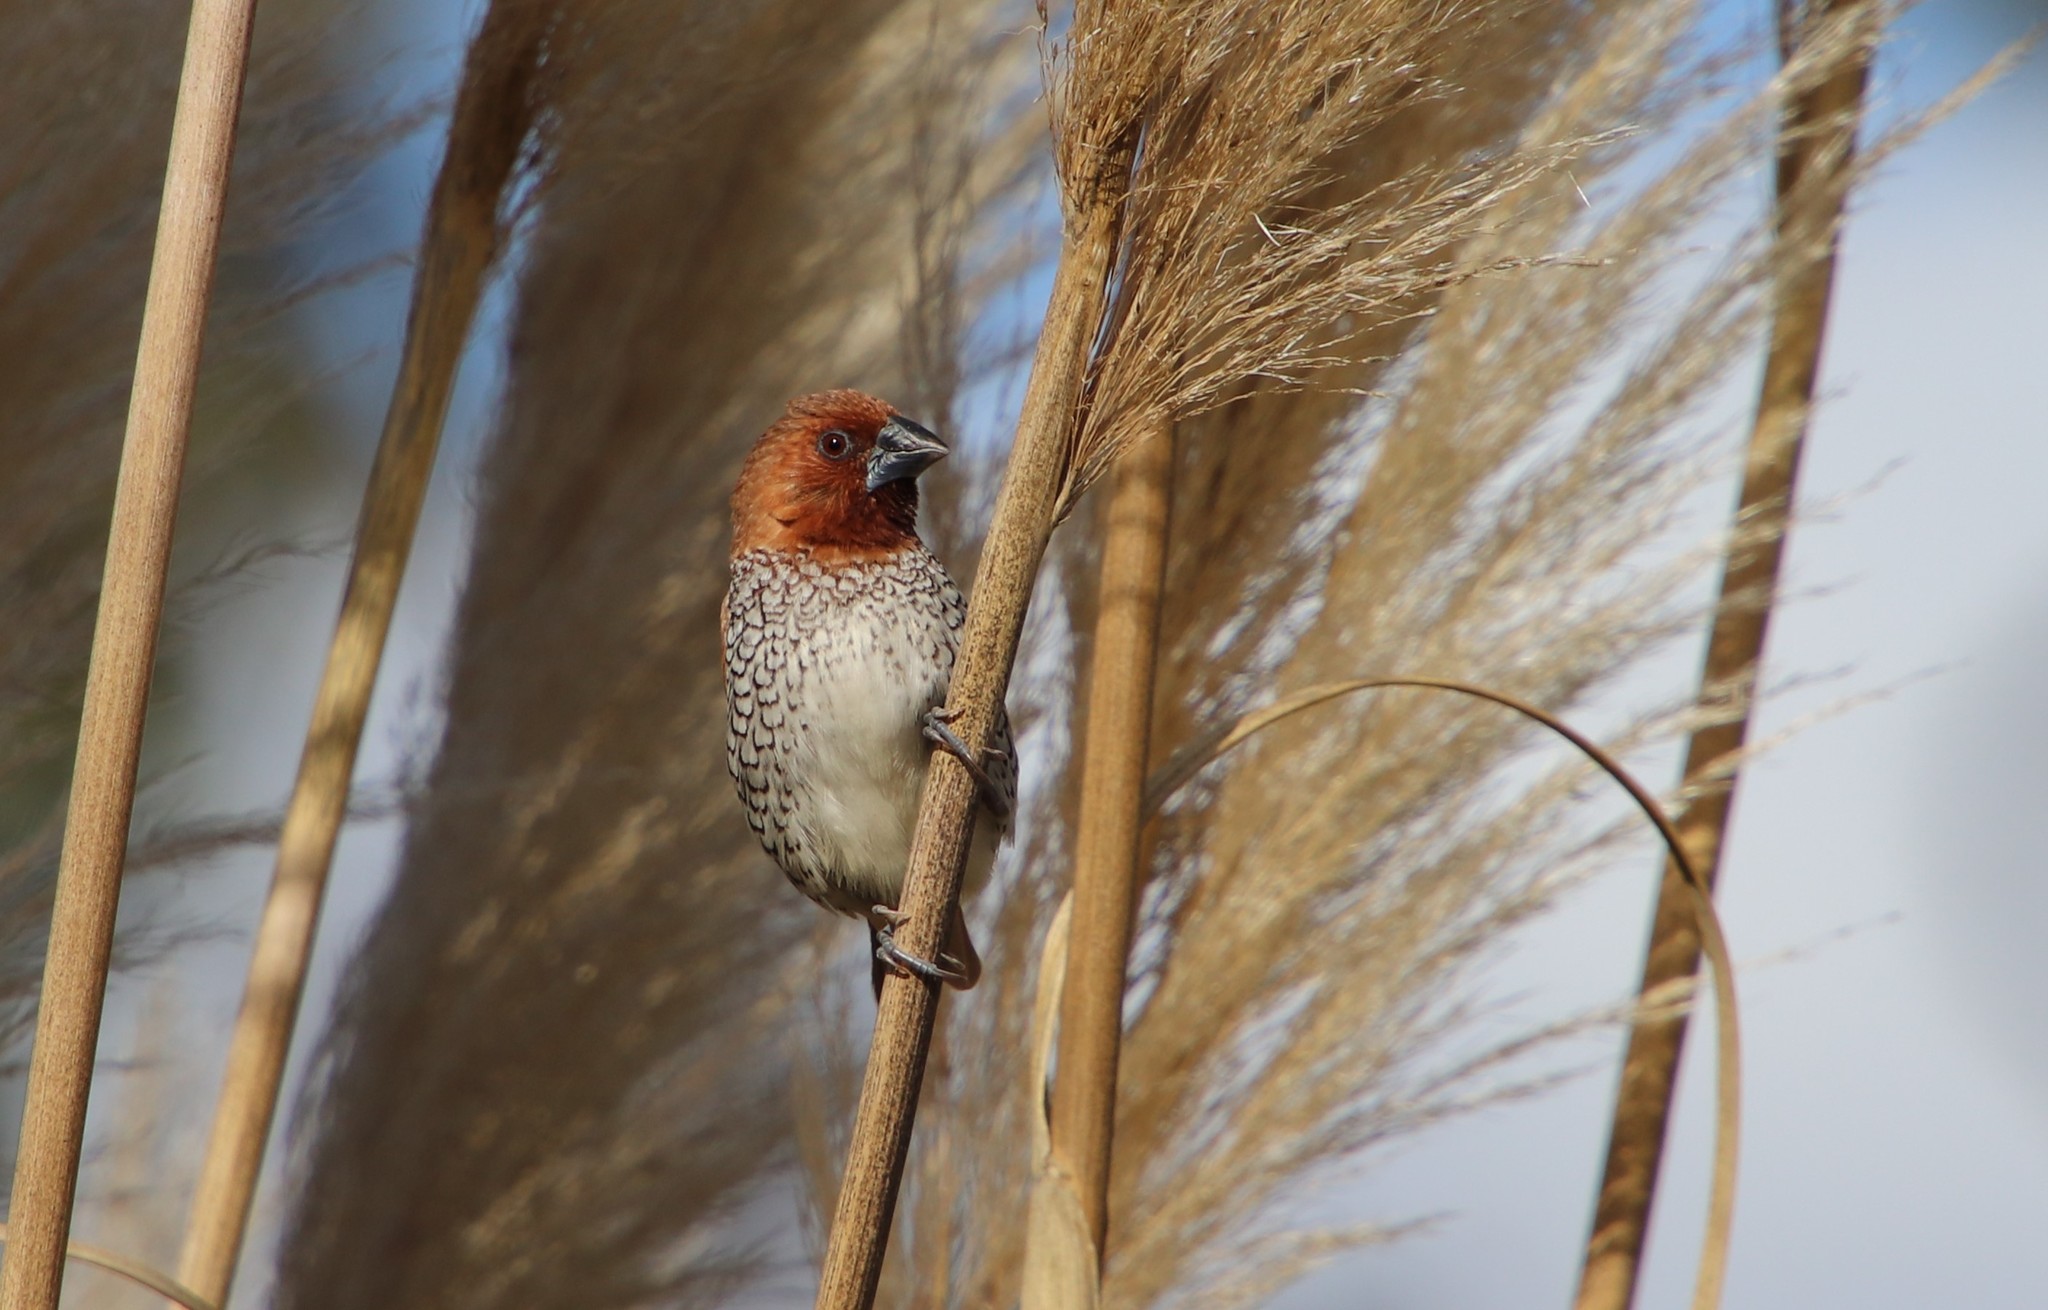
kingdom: Animalia
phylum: Chordata
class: Aves
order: Passeriformes
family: Estrildidae
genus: Lonchura
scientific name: Lonchura punctulata
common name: Scaly-breasted munia
